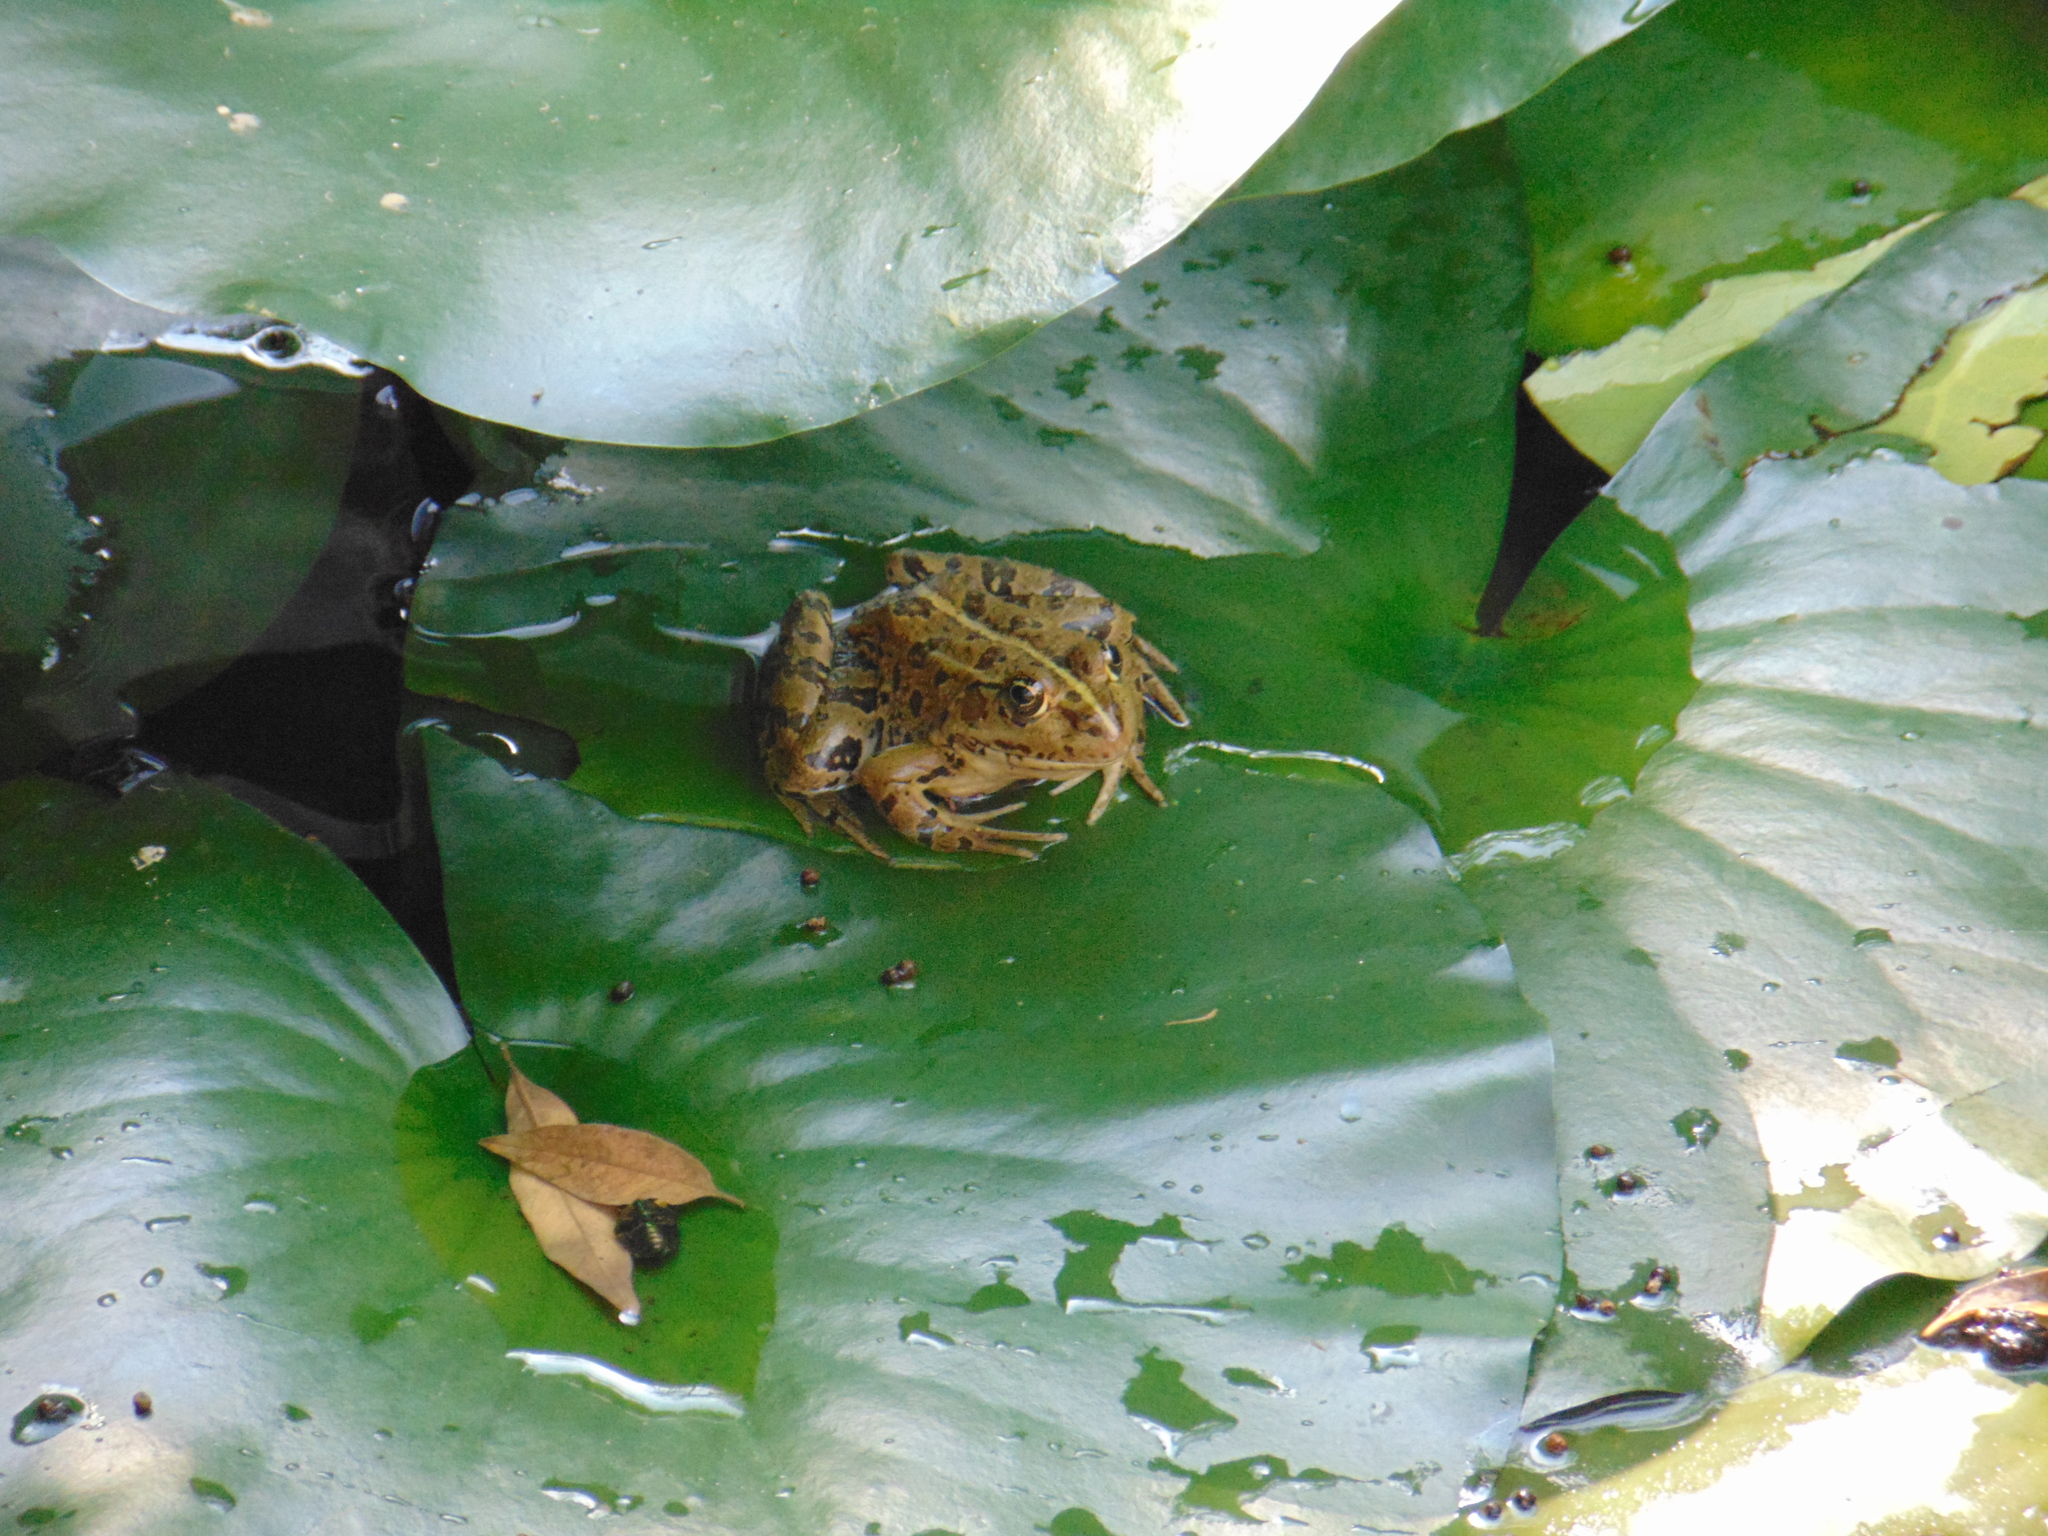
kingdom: Animalia
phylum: Chordata
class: Amphibia
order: Anura
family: Ranidae
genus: Pelophylax
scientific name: Pelophylax kurtmuelleri
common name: Balkan water frog
